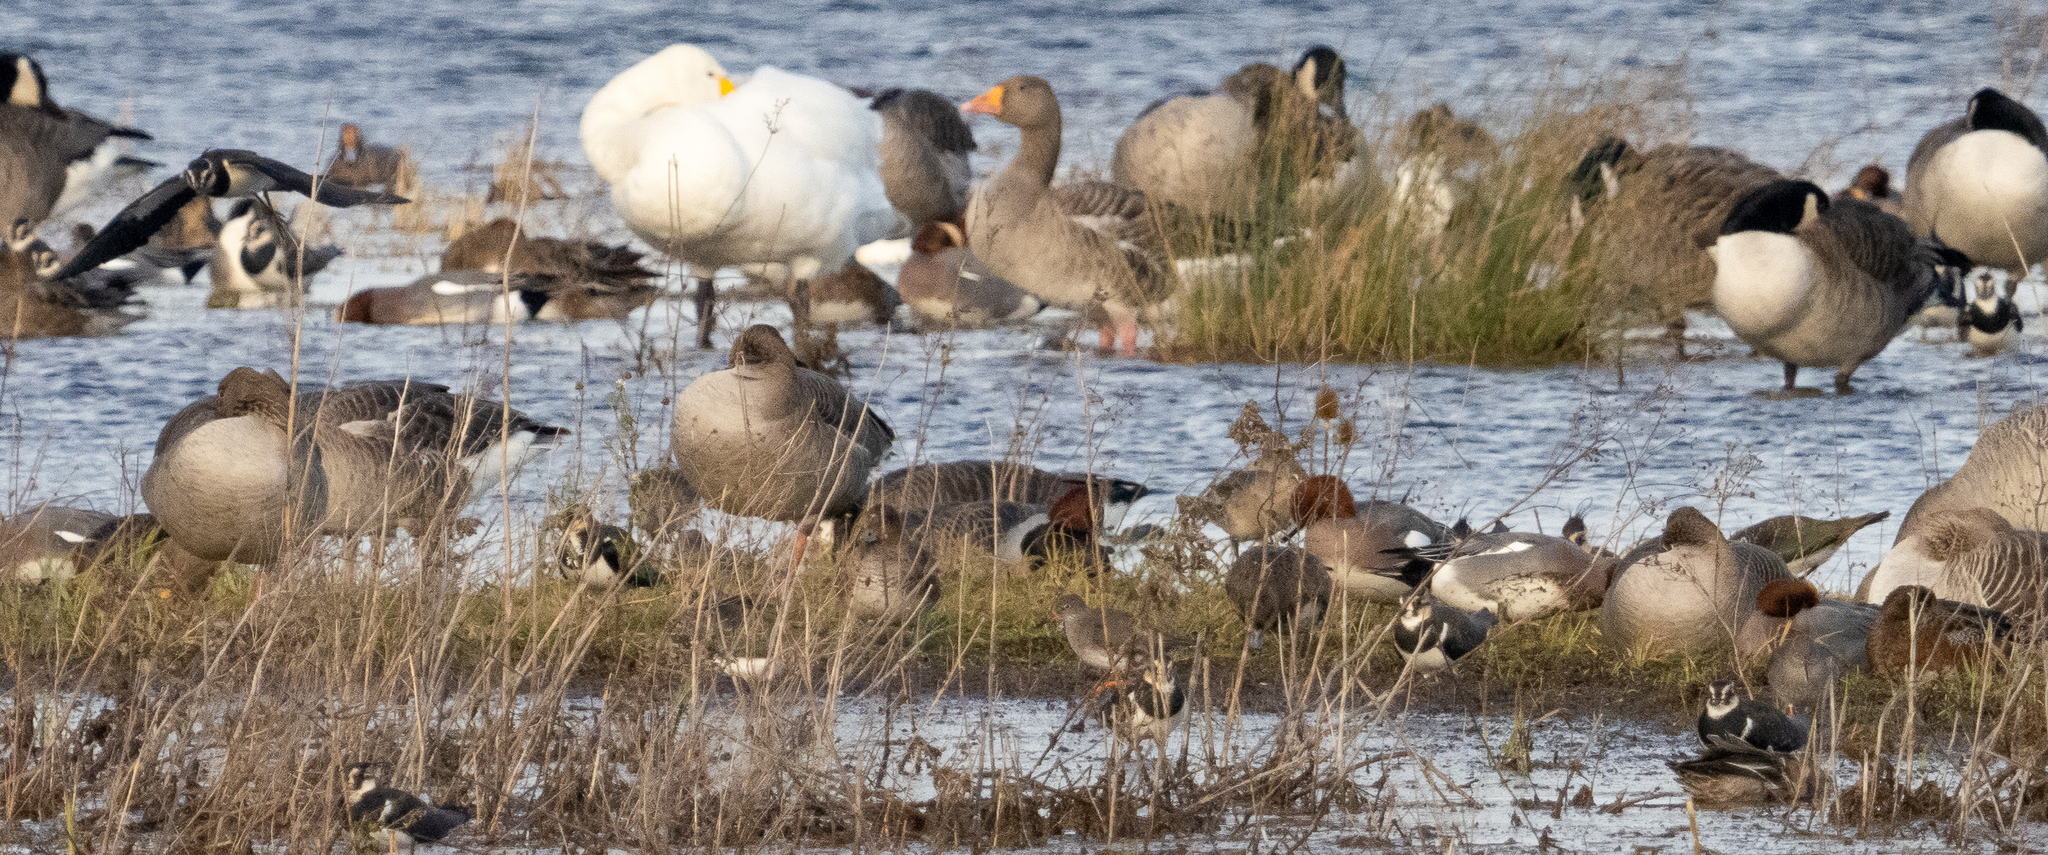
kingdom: Animalia
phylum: Chordata
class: Aves
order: Charadriiformes
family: Scolopacidae
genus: Tringa
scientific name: Tringa totanus
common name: Common redshank
